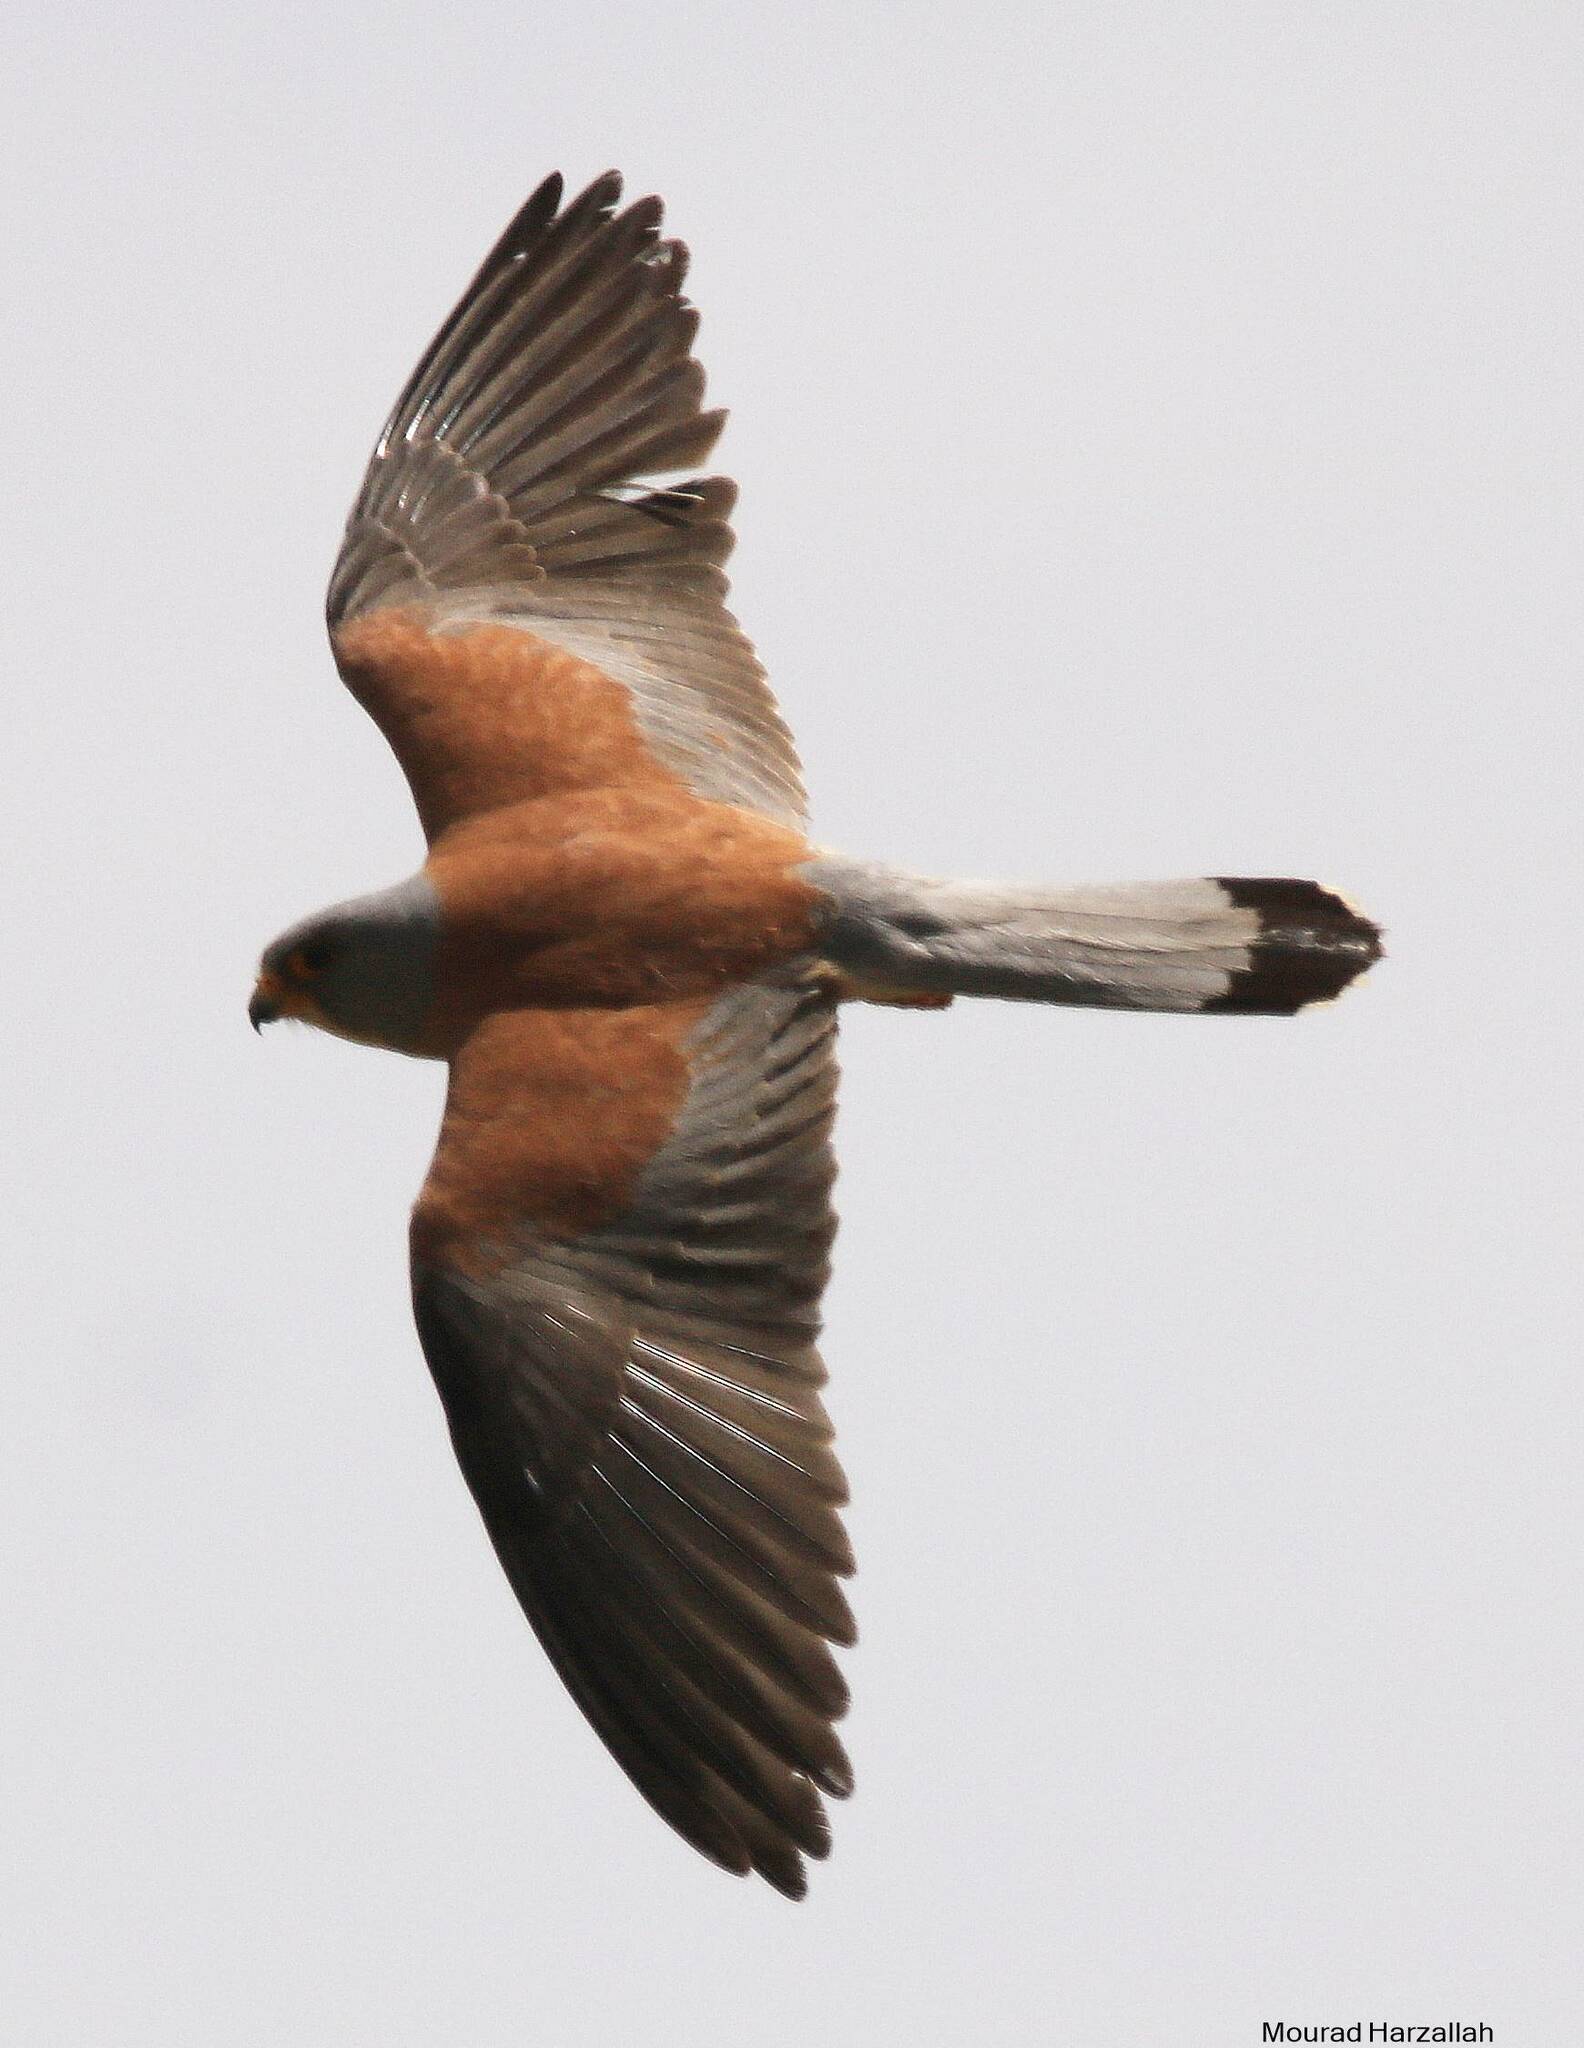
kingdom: Animalia
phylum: Chordata
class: Aves
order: Falconiformes
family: Falconidae
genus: Falco
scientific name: Falco naumanni
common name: Lesser kestrel
